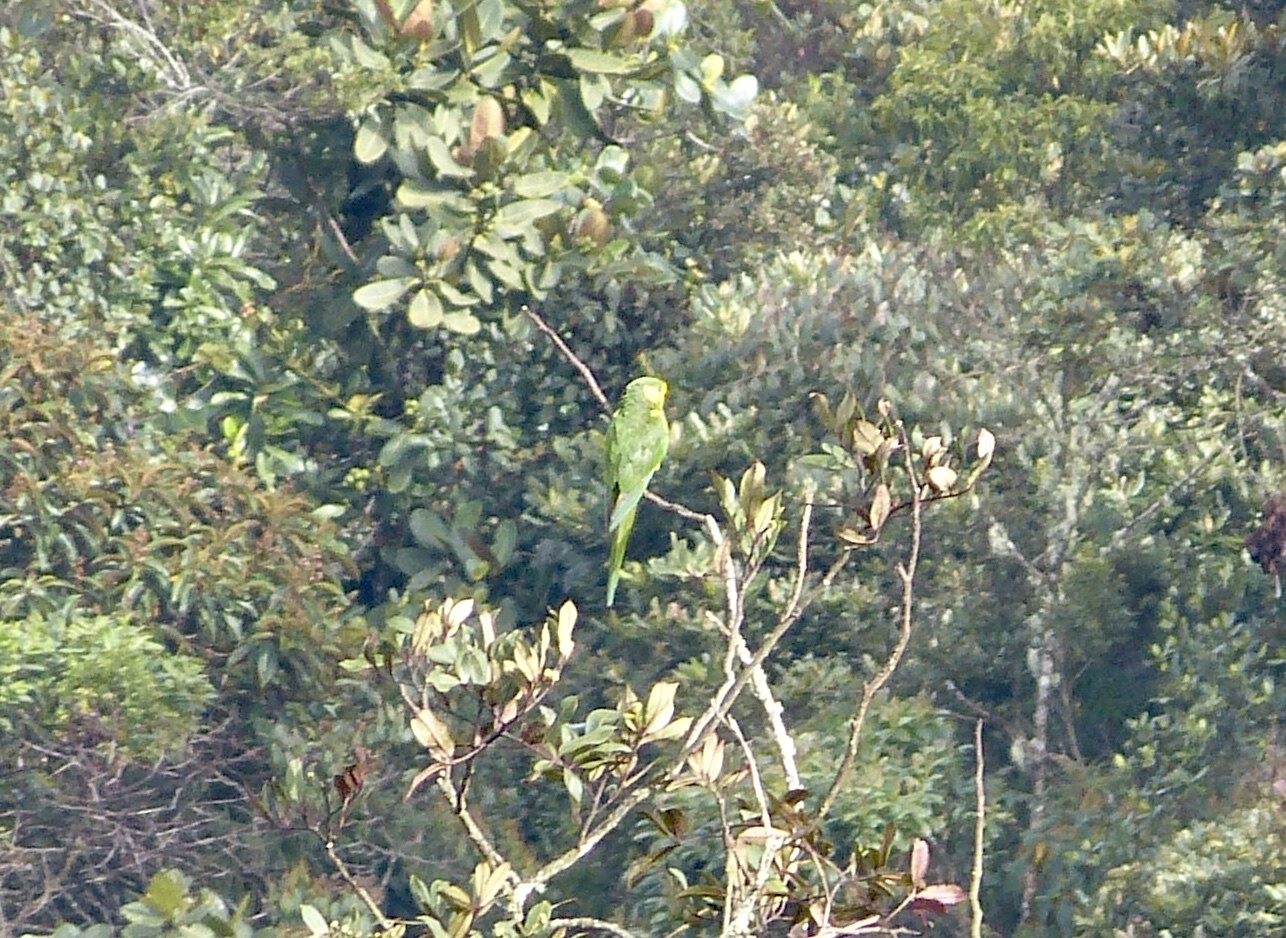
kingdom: Animalia
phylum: Chordata
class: Aves
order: Psittaciformes
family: Psittacidae
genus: Ognorhynchus
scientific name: Ognorhynchus icterotis
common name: Yellow-eared parrot
